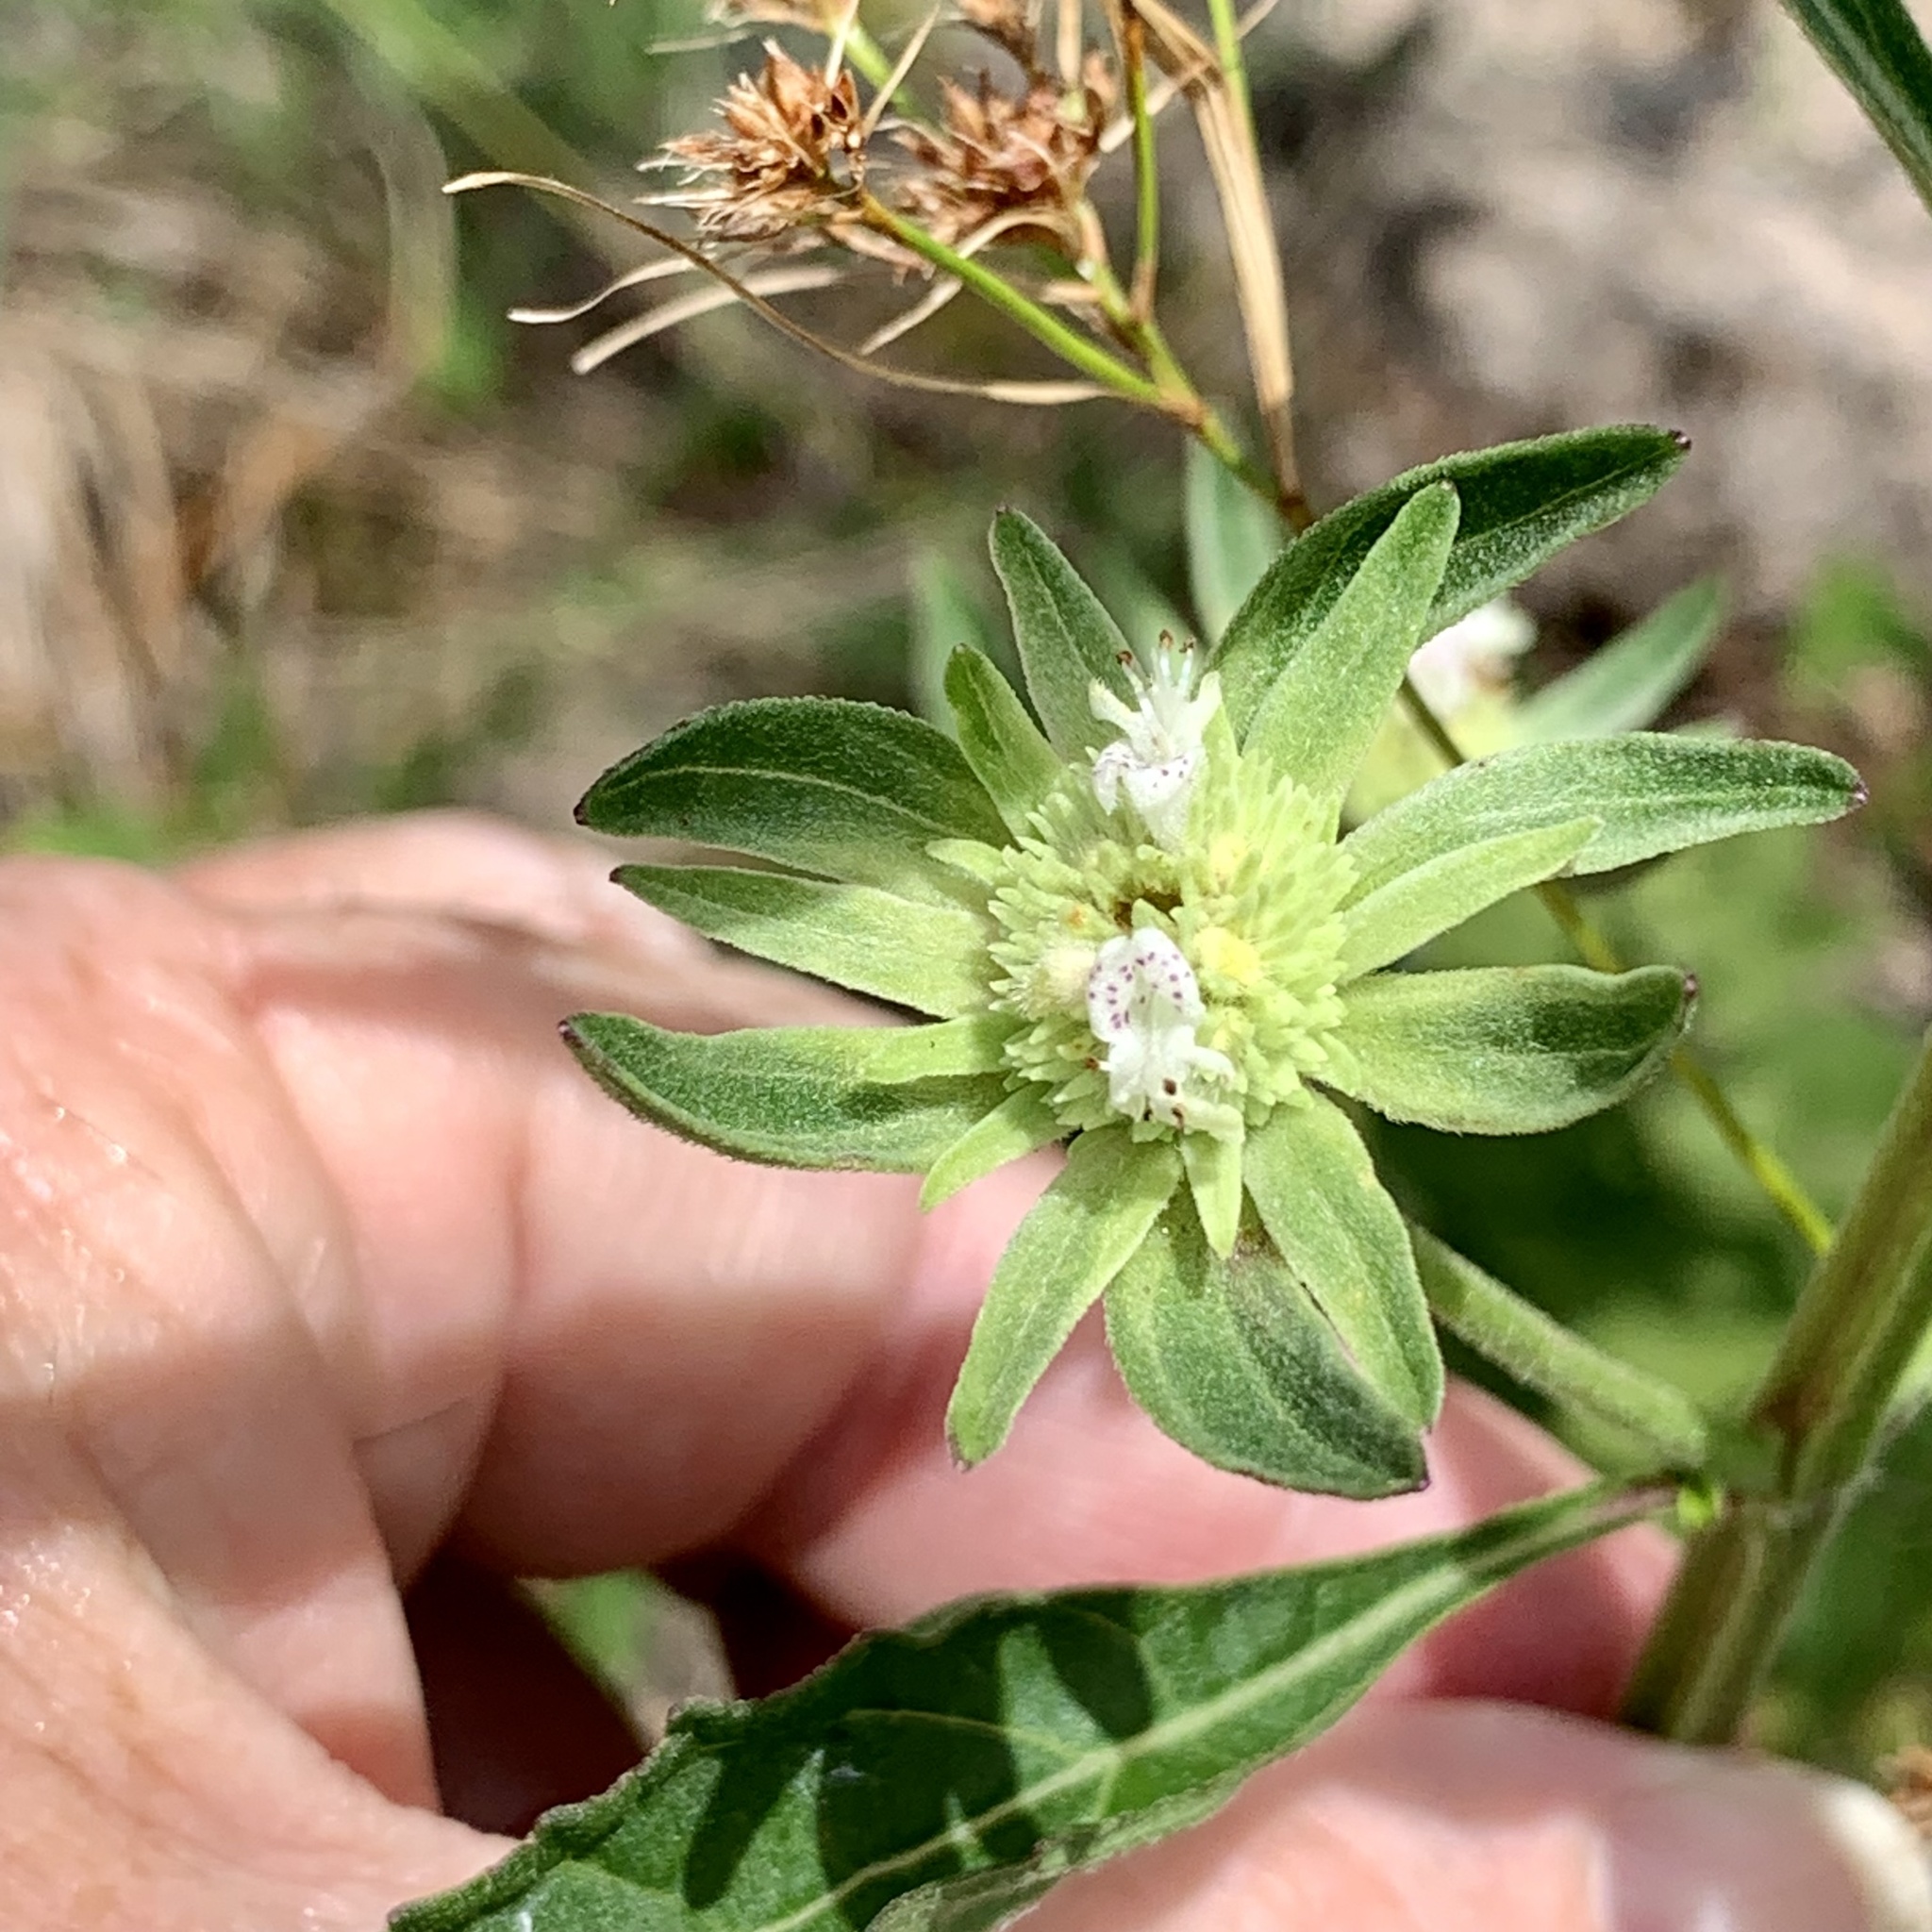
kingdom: Plantae
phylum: Tracheophyta
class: Magnoliopsida
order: Lamiales
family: Lamiaceae
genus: Hyptis
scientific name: Hyptis alata
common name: Cluster bush-mint
